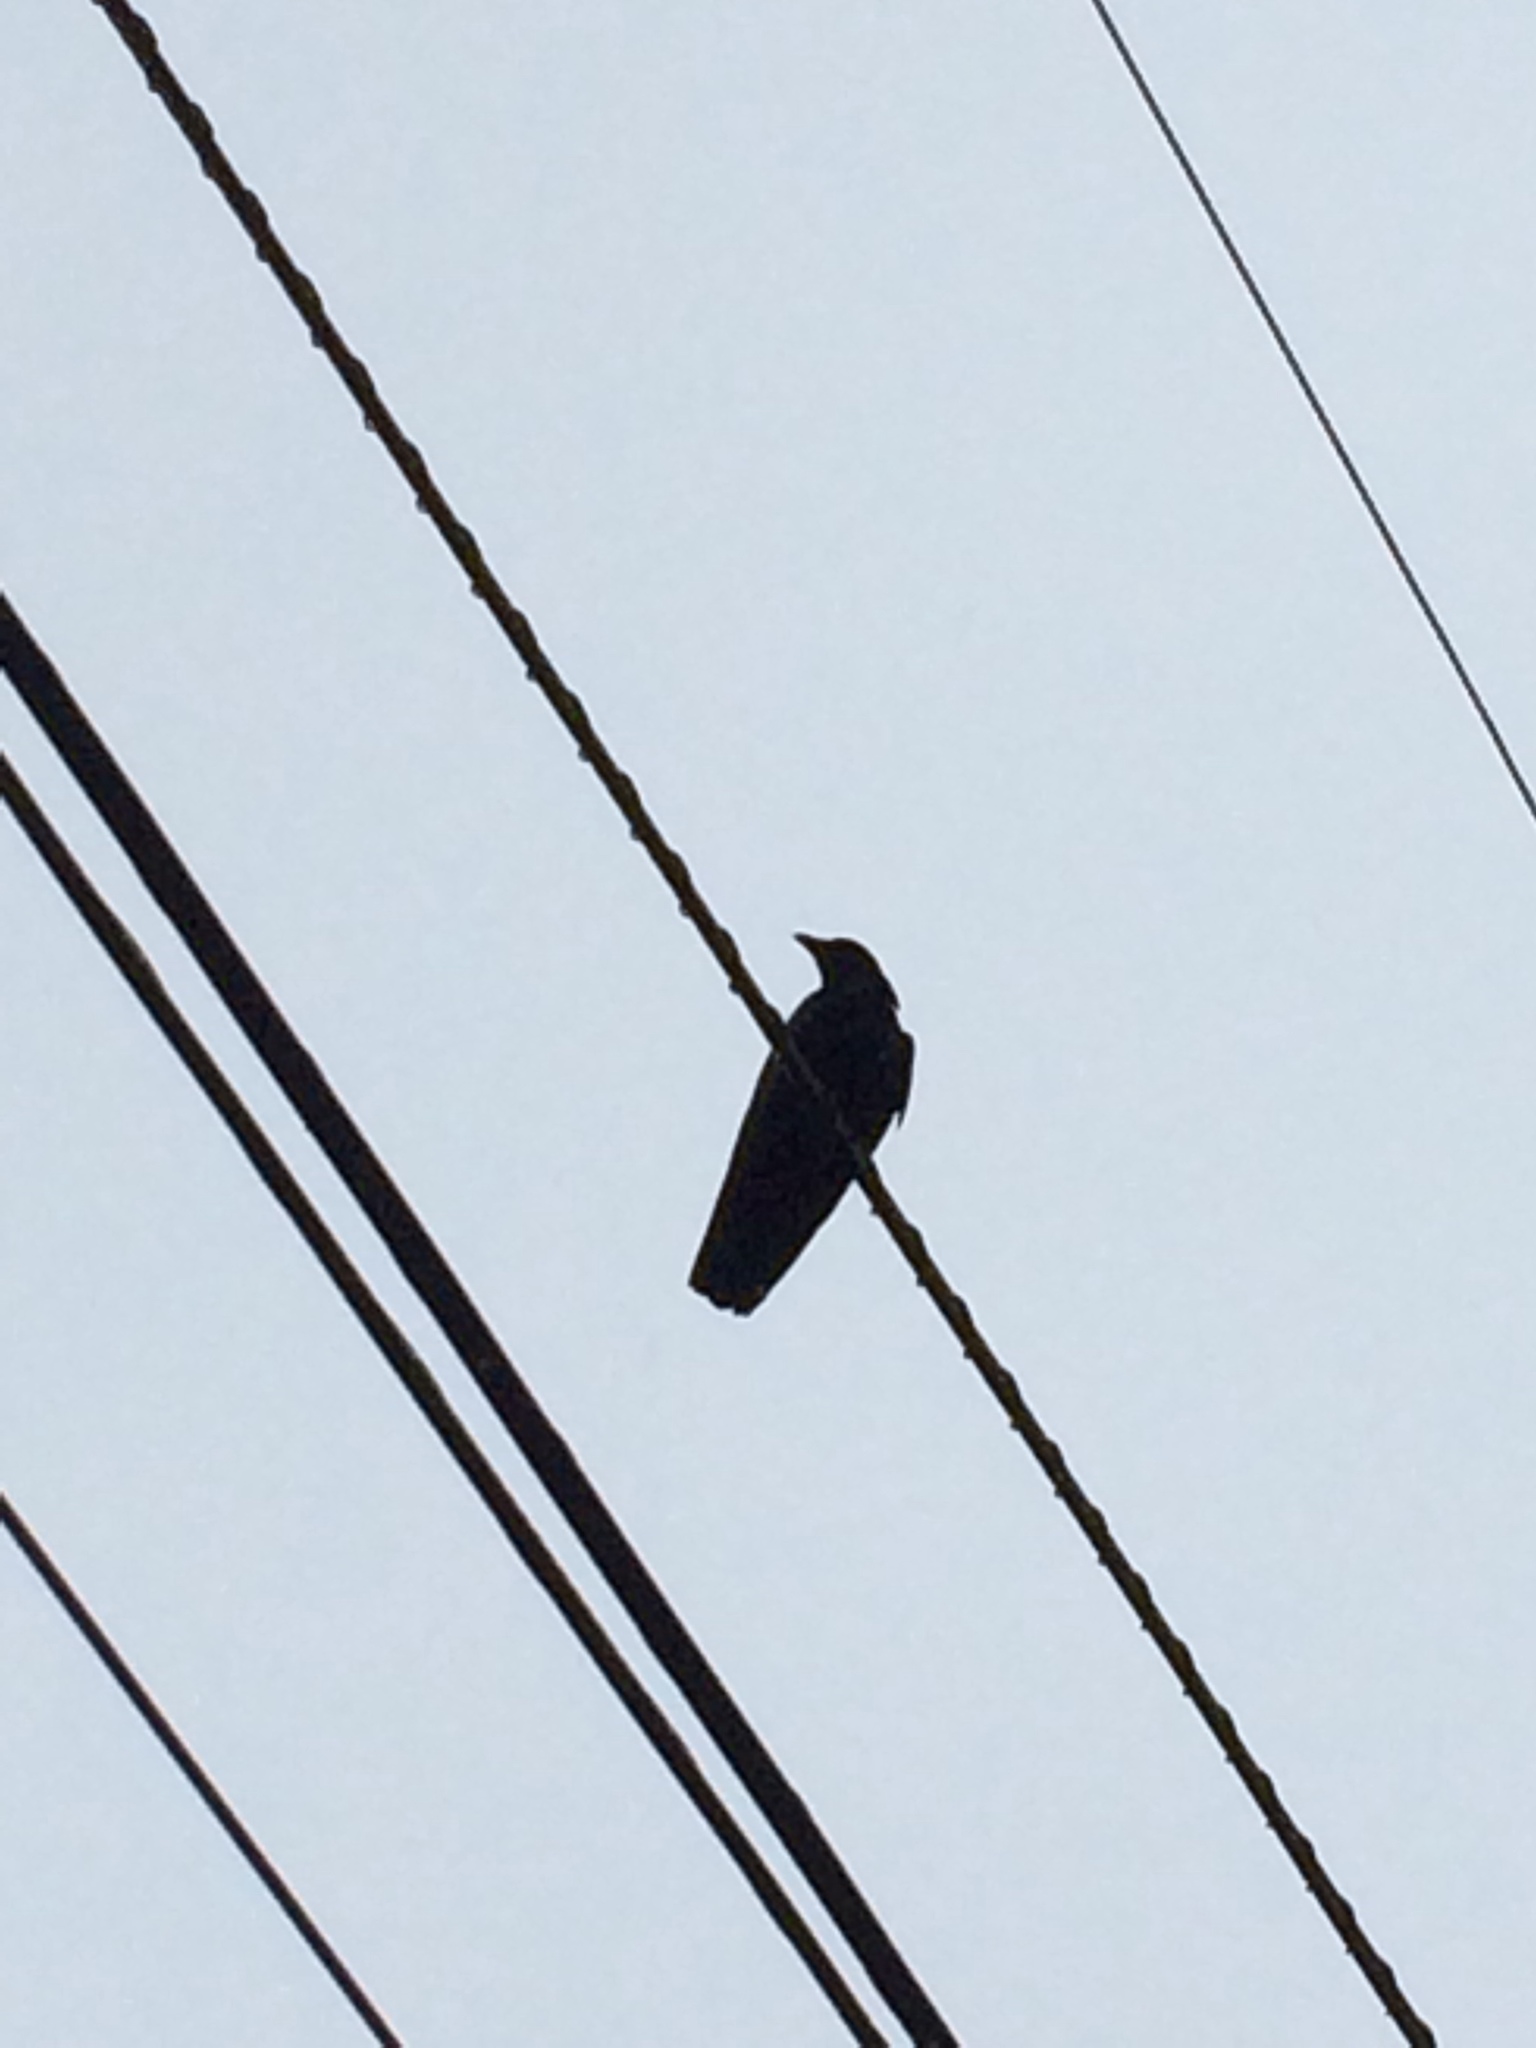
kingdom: Animalia
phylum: Chordata
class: Aves
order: Passeriformes
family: Corvidae
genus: Corvus
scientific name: Corvus brachyrhynchos
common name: American crow
